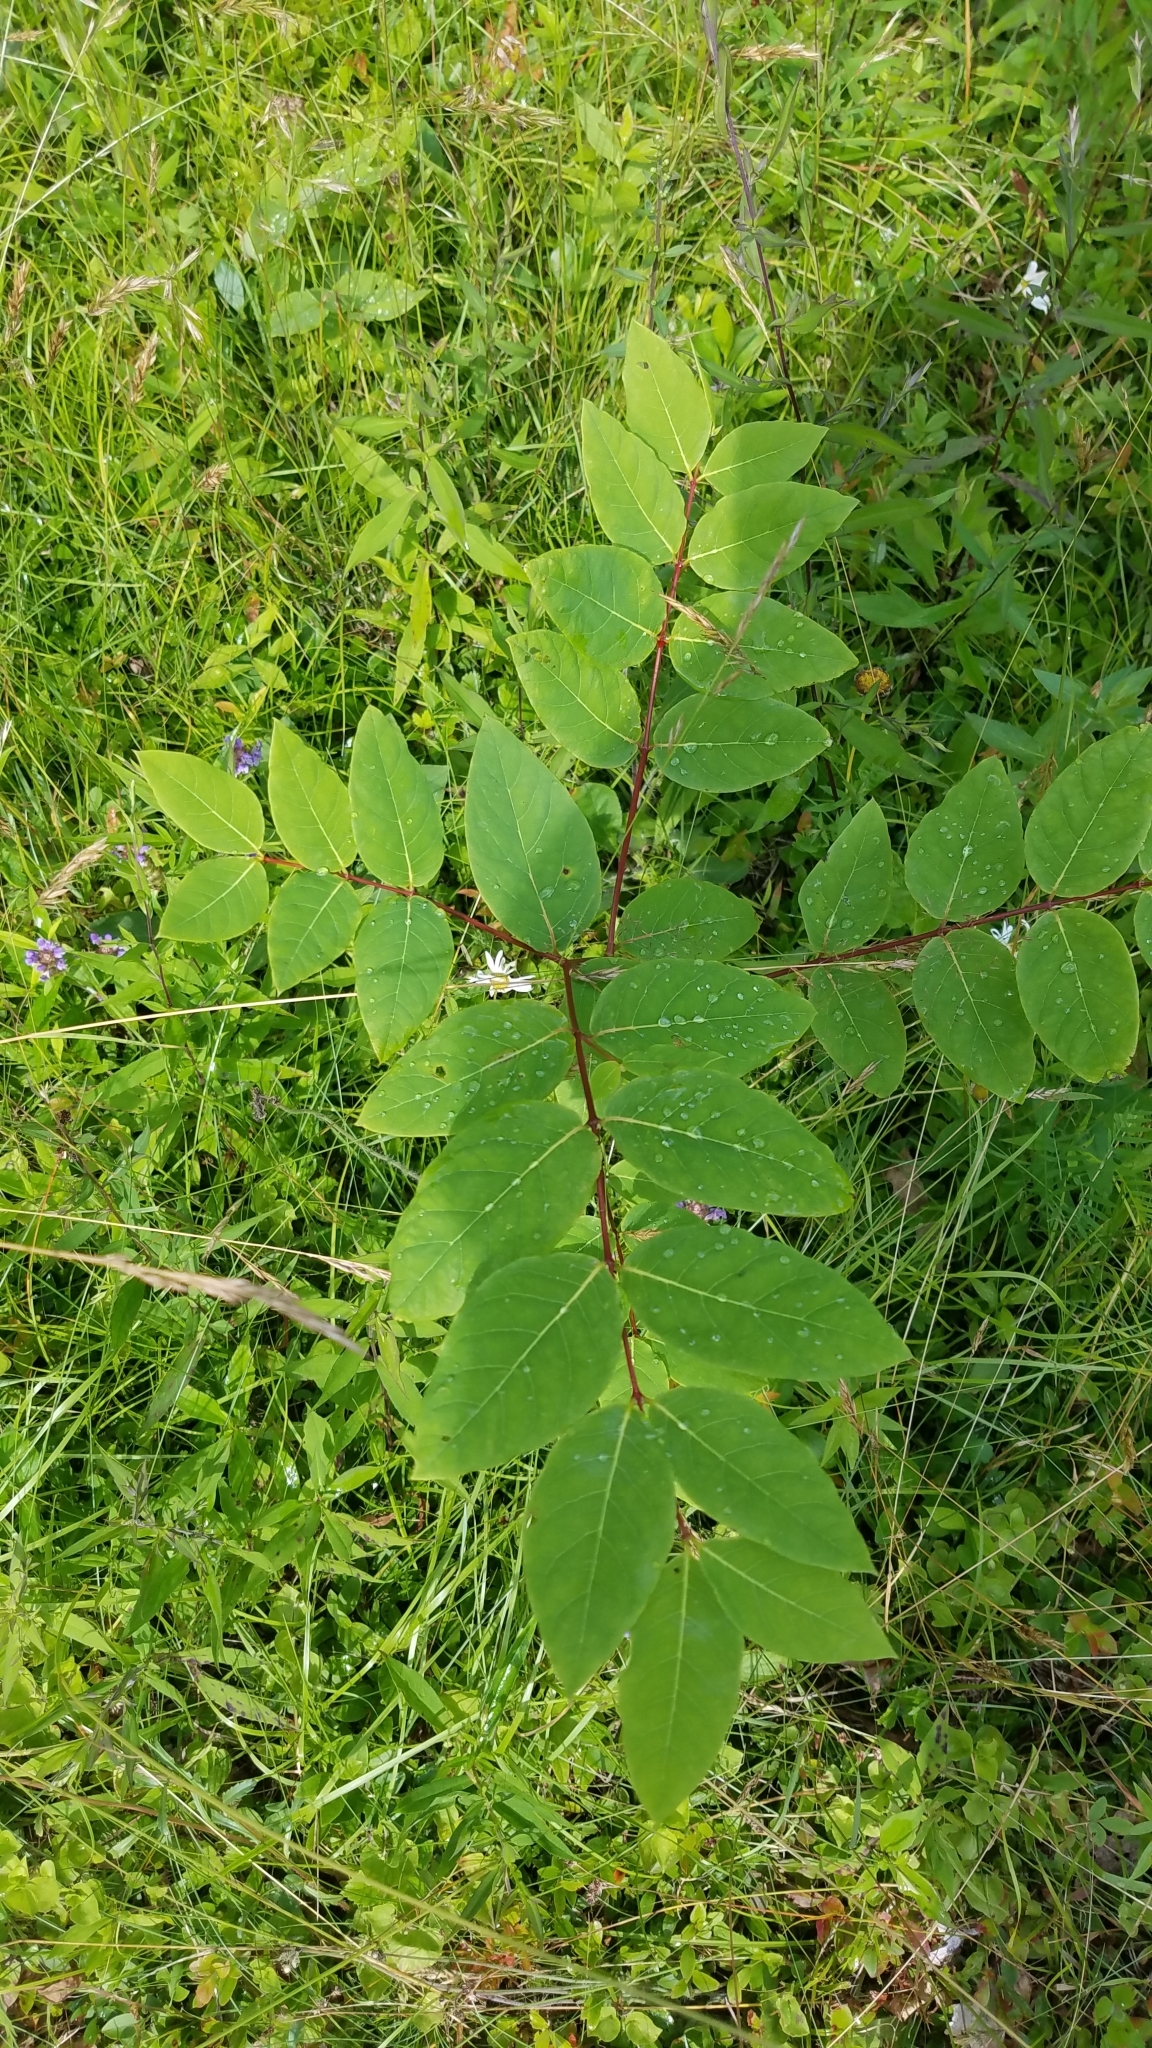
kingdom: Plantae
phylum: Tracheophyta
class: Magnoliopsida
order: Gentianales
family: Apocynaceae
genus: Apocynum
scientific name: Apocynum androsaemifolium
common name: Spreading dogbane
